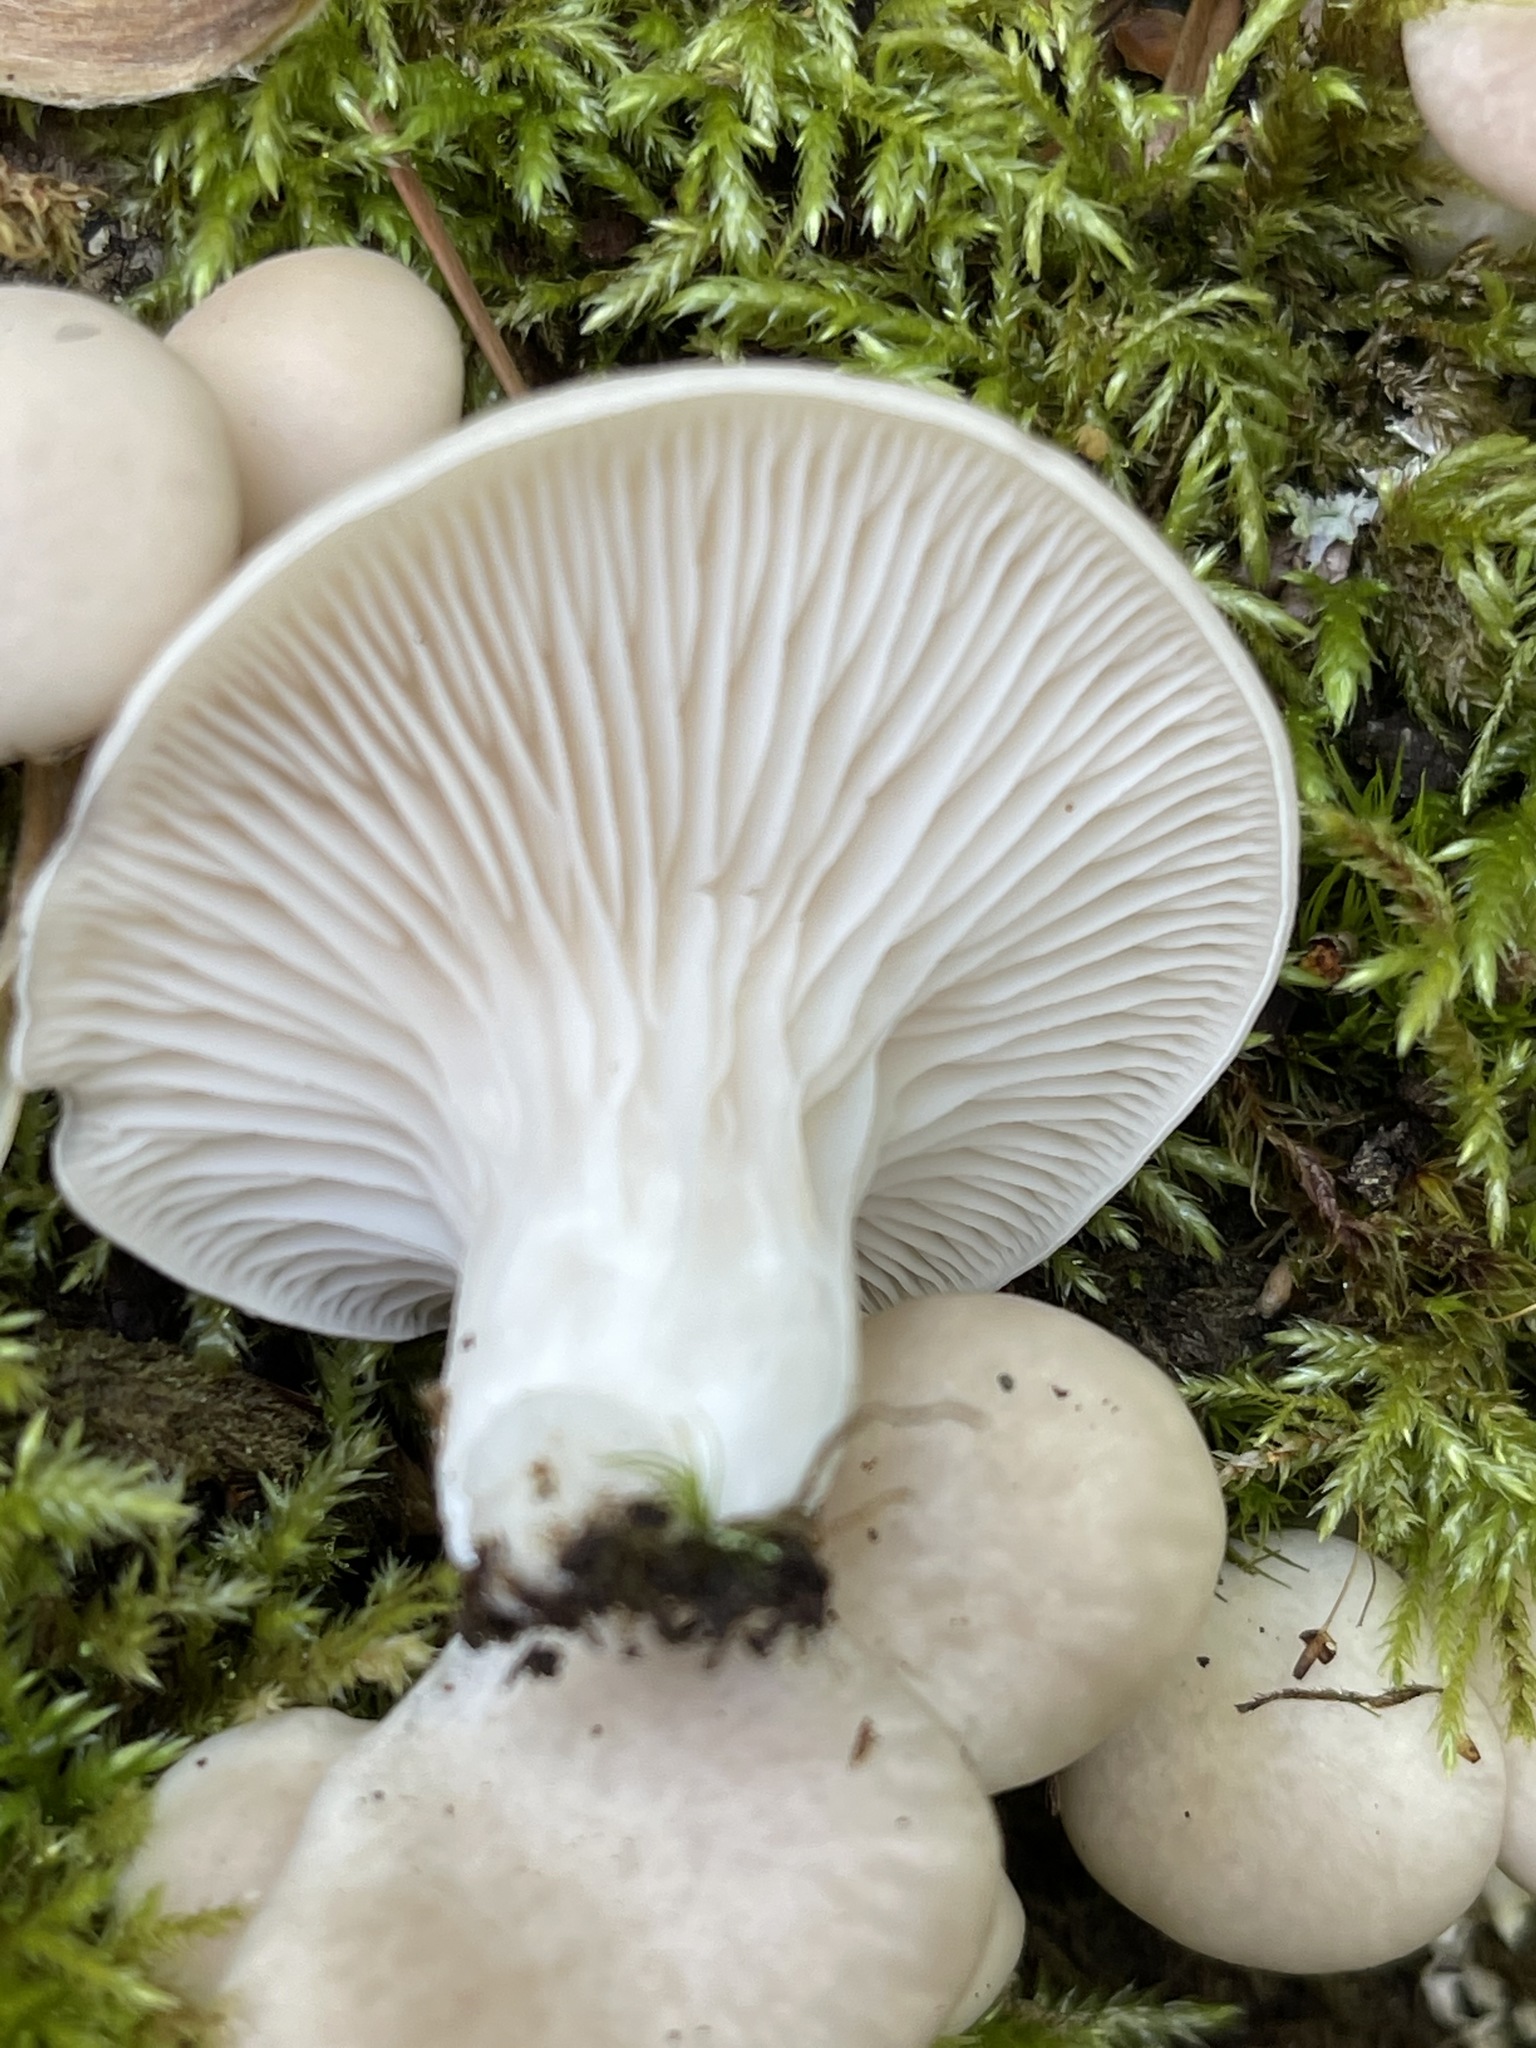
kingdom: Fungi
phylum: Basidiomycota
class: Agaricomycetes
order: Agaricales
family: Pleurotaceae
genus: Pleurotus
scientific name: Pleurotus pulmonarius
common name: Pale oyster
